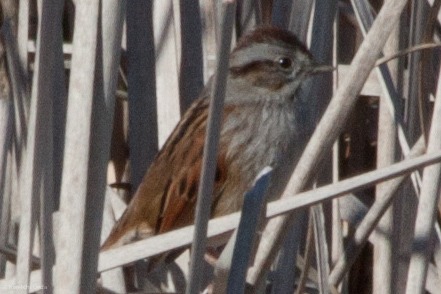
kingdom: Animalia
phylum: Chordata
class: Aves
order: Passeriformes
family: Passerellidae
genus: Melospiza
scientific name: Melospiza georgiana
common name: Swamp sparrow
